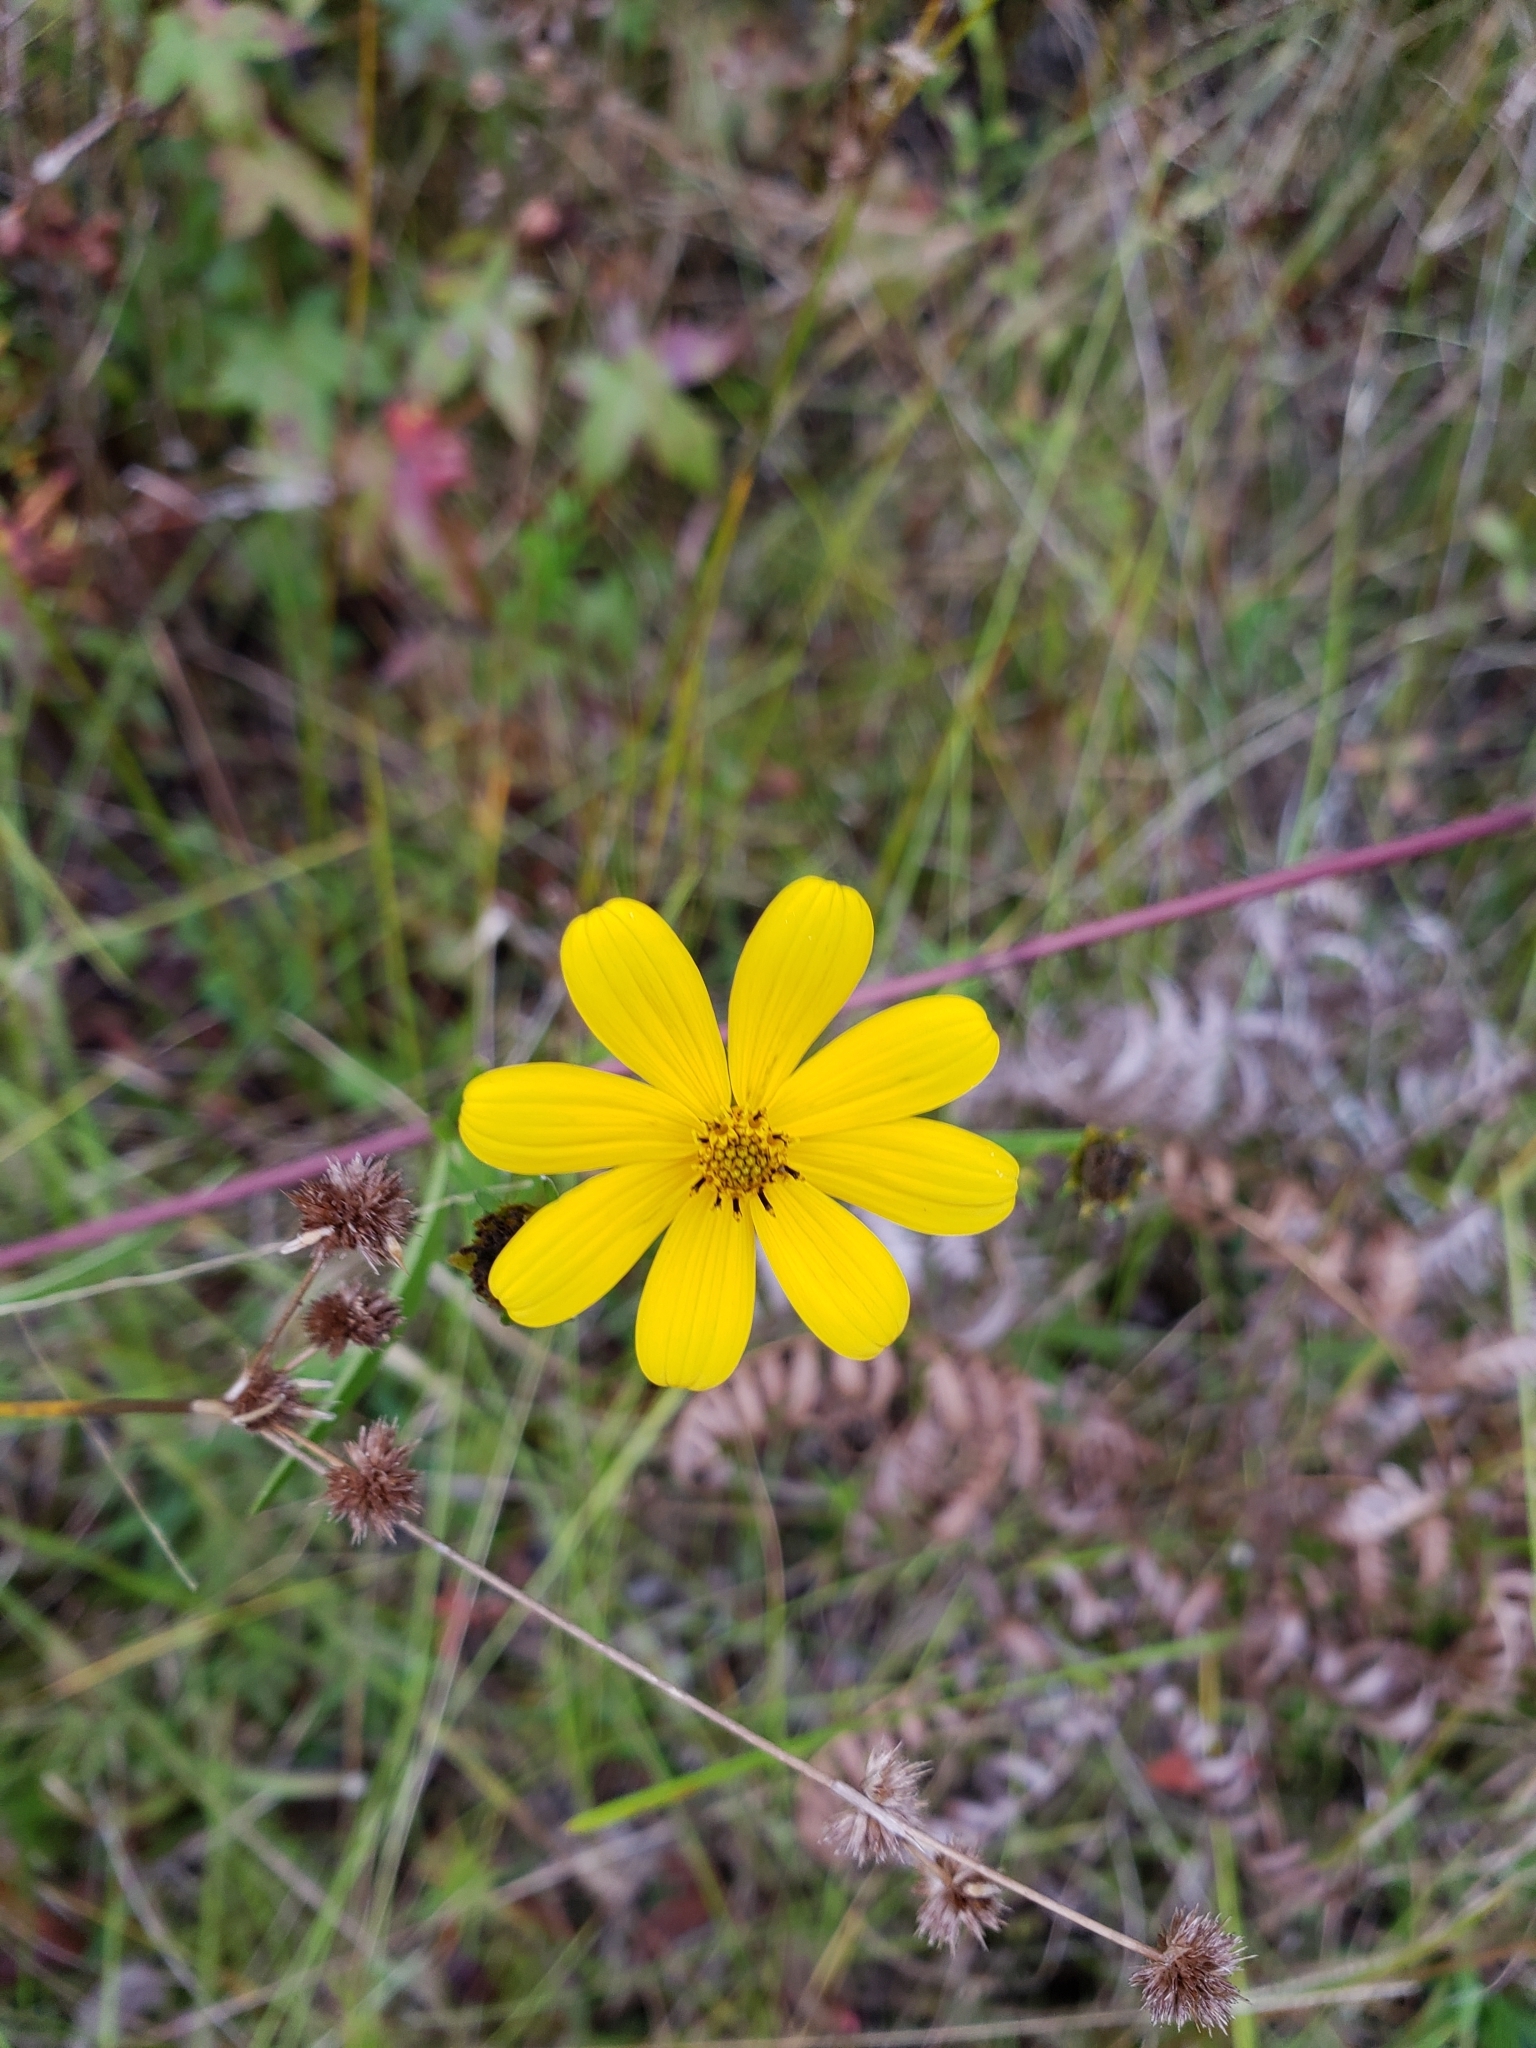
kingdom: Plantae
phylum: Tracheophyta
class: Magnoliopsida
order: Asterales
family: Asteraceae
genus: Bidens
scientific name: Bidens mitis
